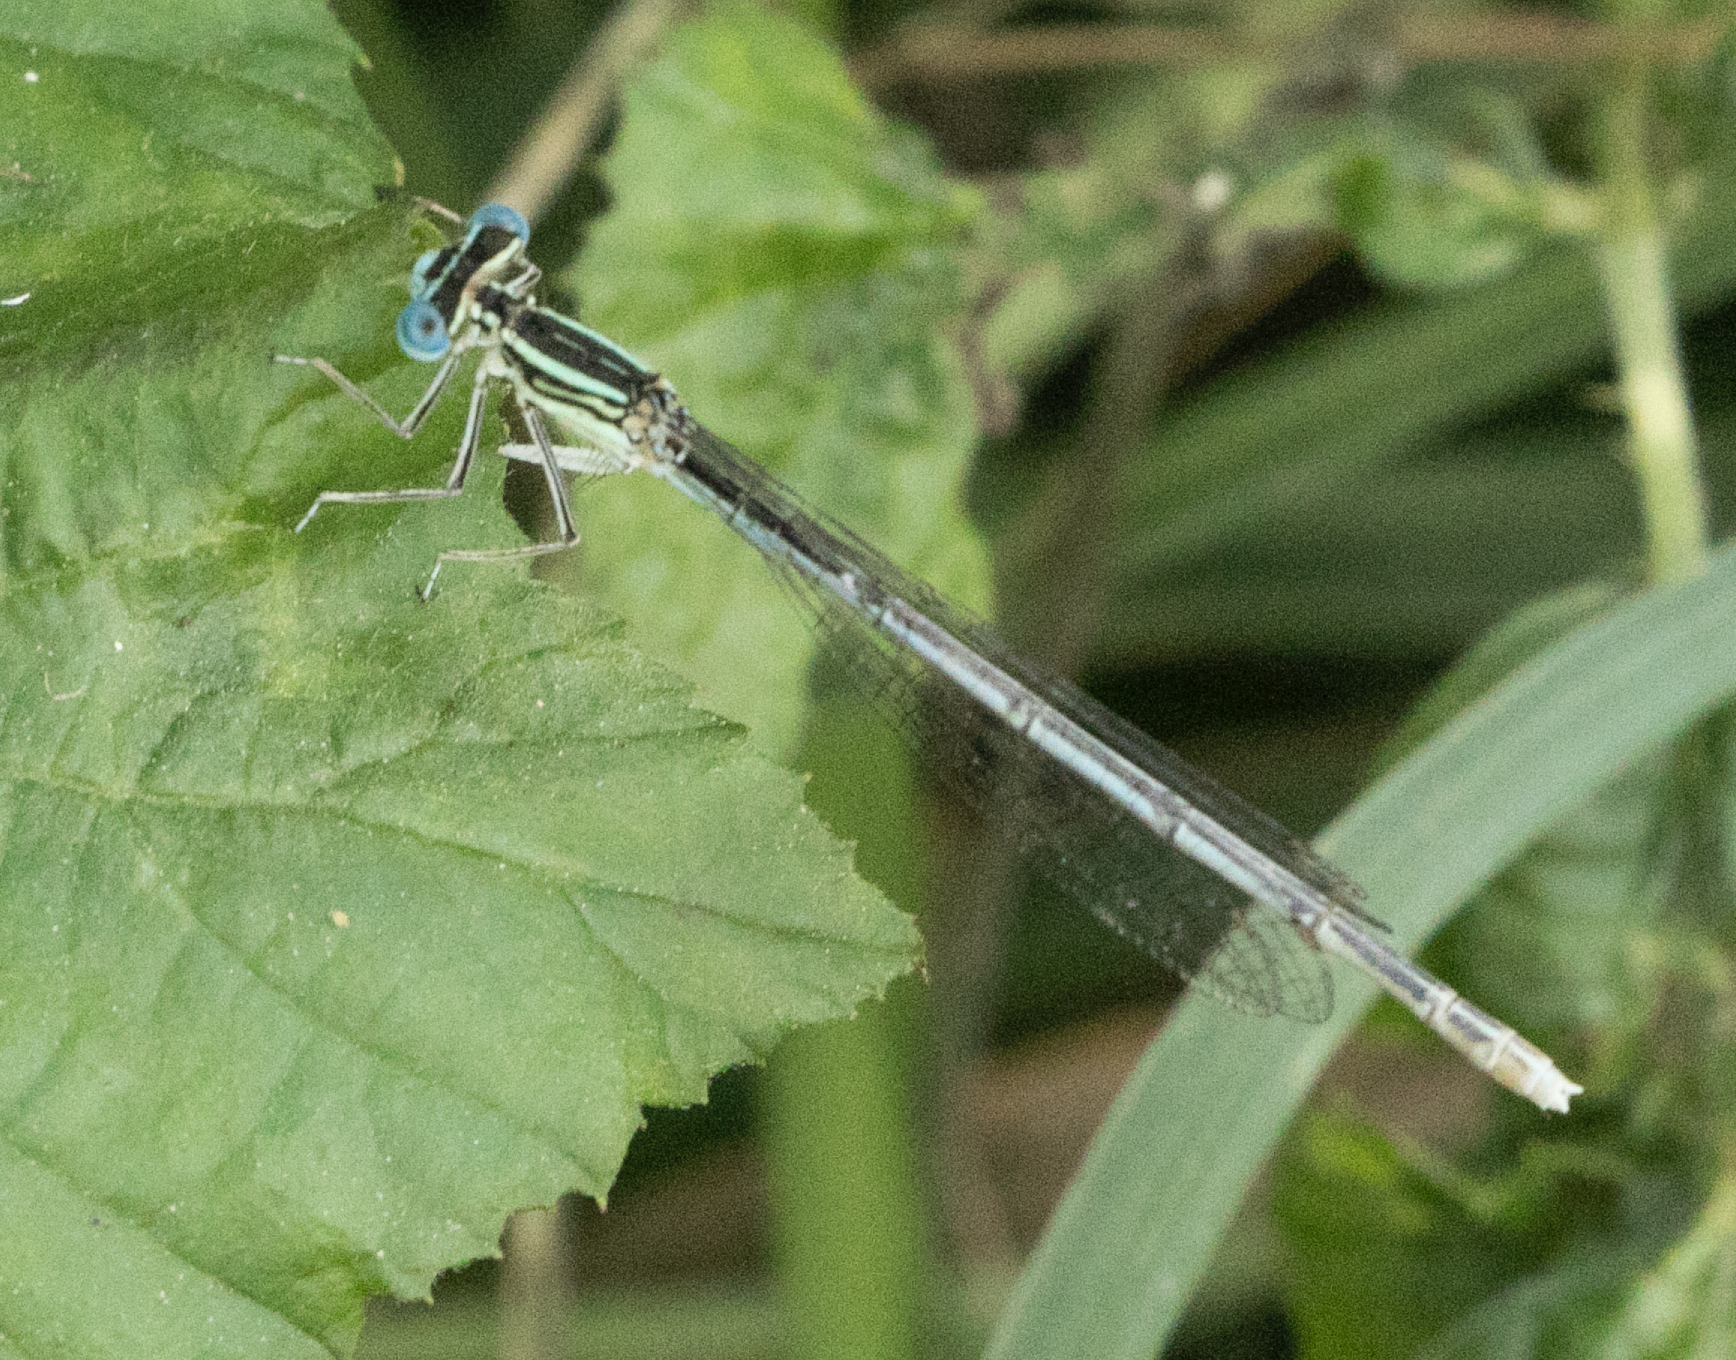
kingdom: Animalia
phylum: Arthropoda
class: Insecta
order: Odonata
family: Platycnemididae
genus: Platycnemis
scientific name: Platycnemis pennipes
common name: White-legged damselfly
